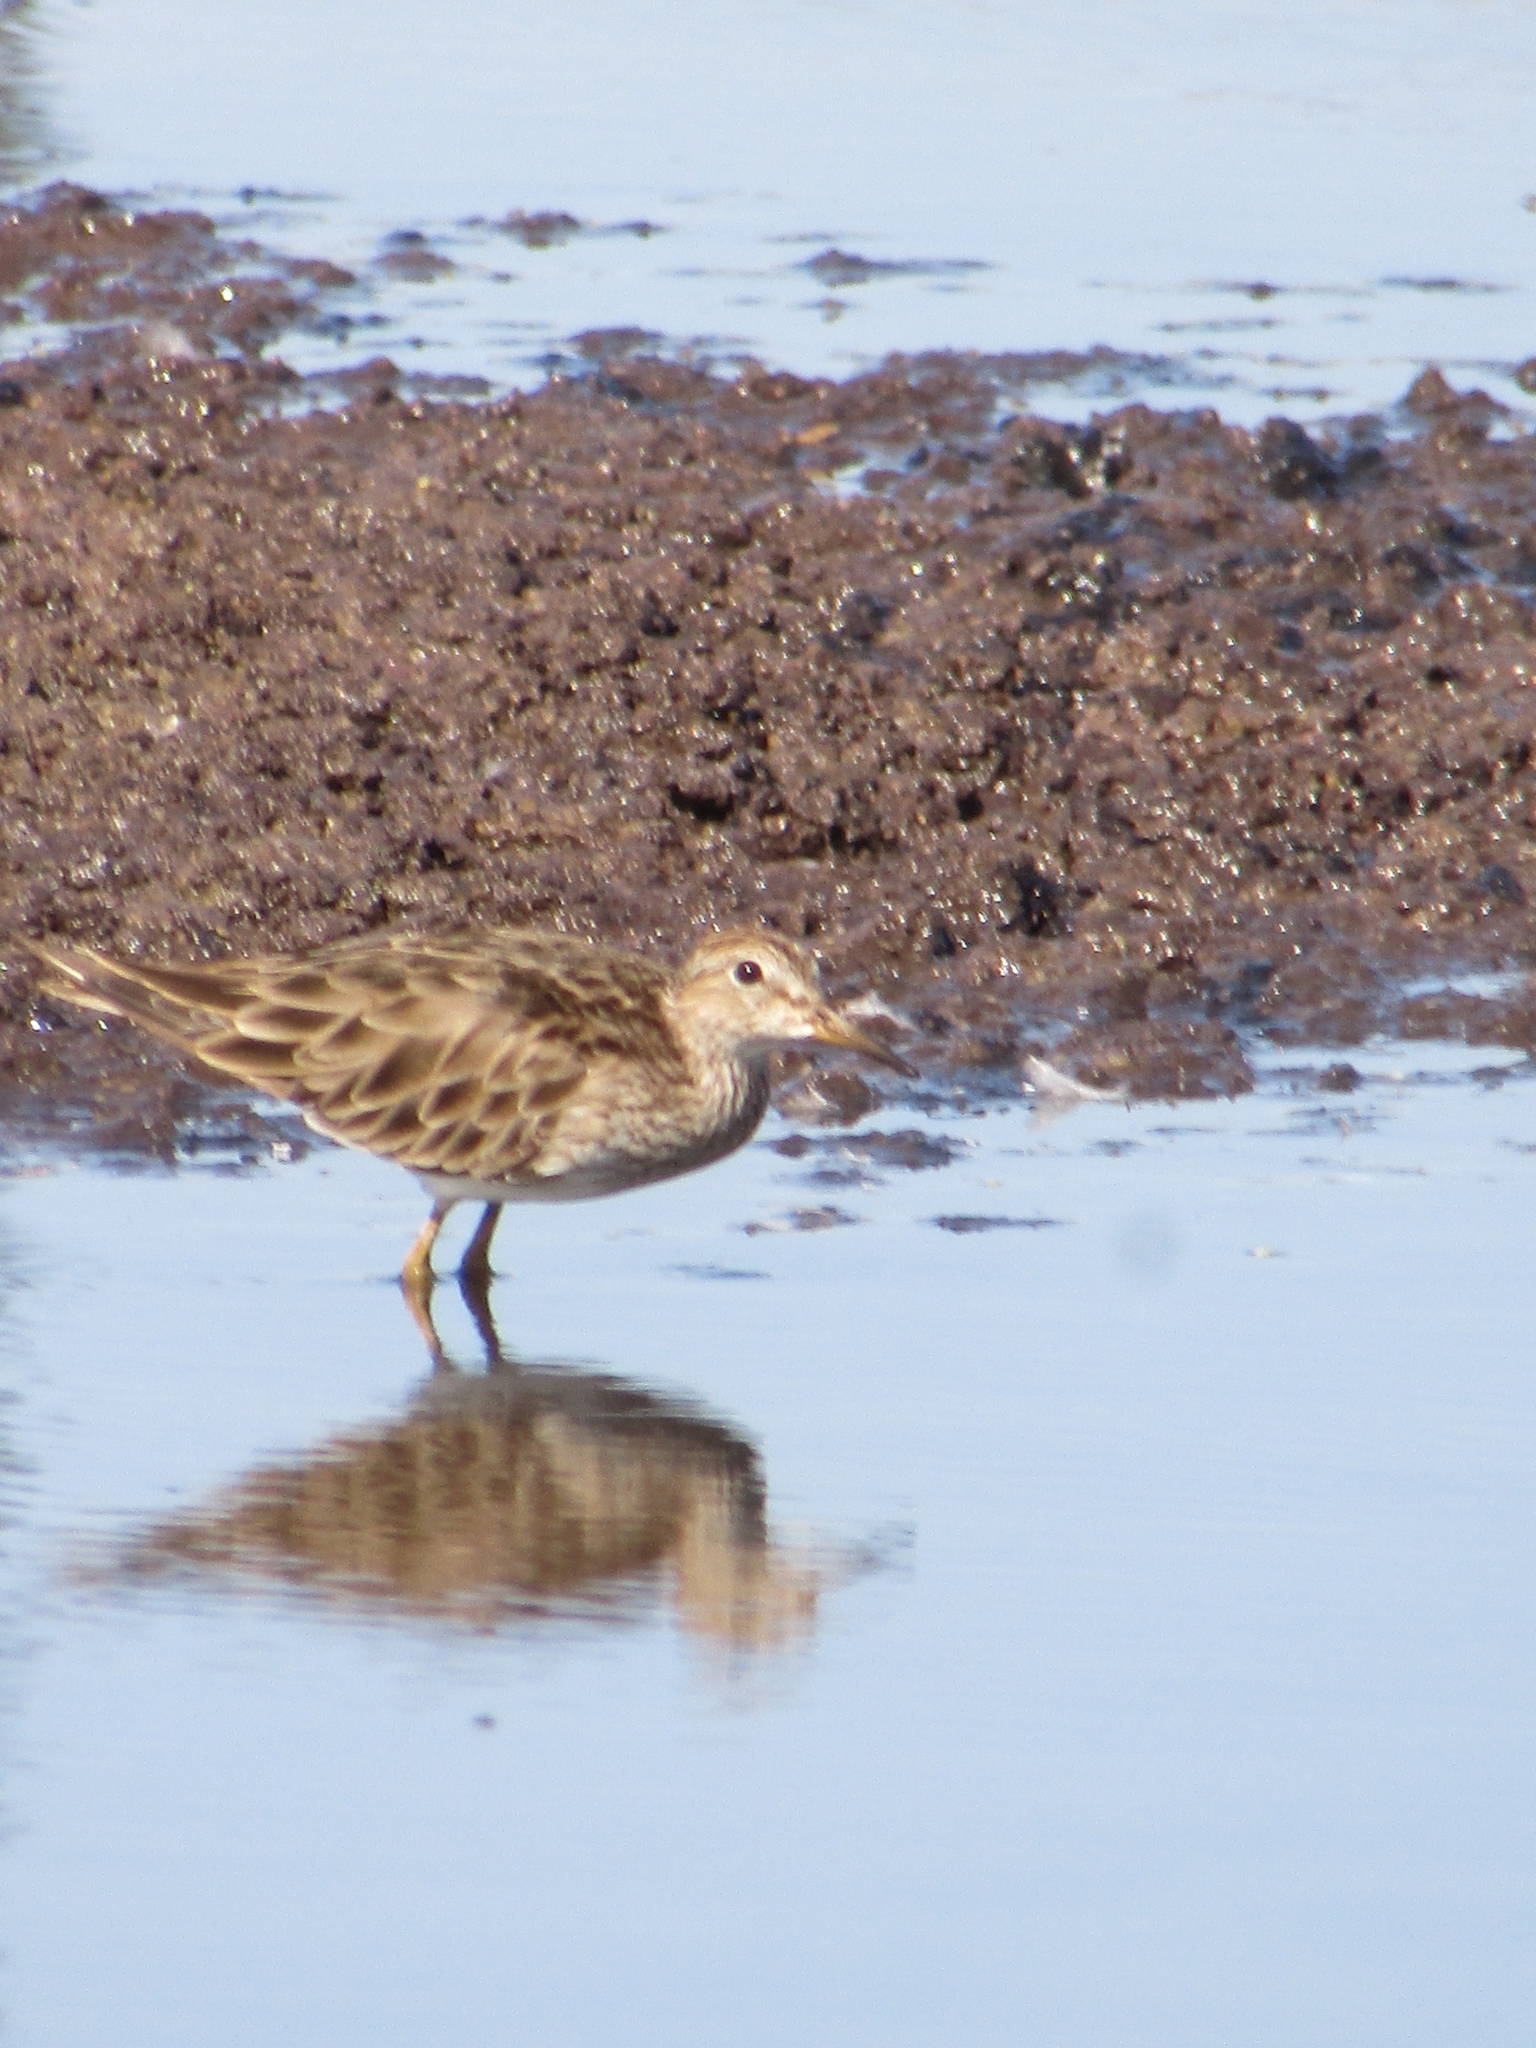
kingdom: Animalia
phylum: Chordata
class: Aves
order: Charadriiformes
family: Scolopacidae
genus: Calidris
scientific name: Calidris melanotos
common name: Pectoral sandpiper
